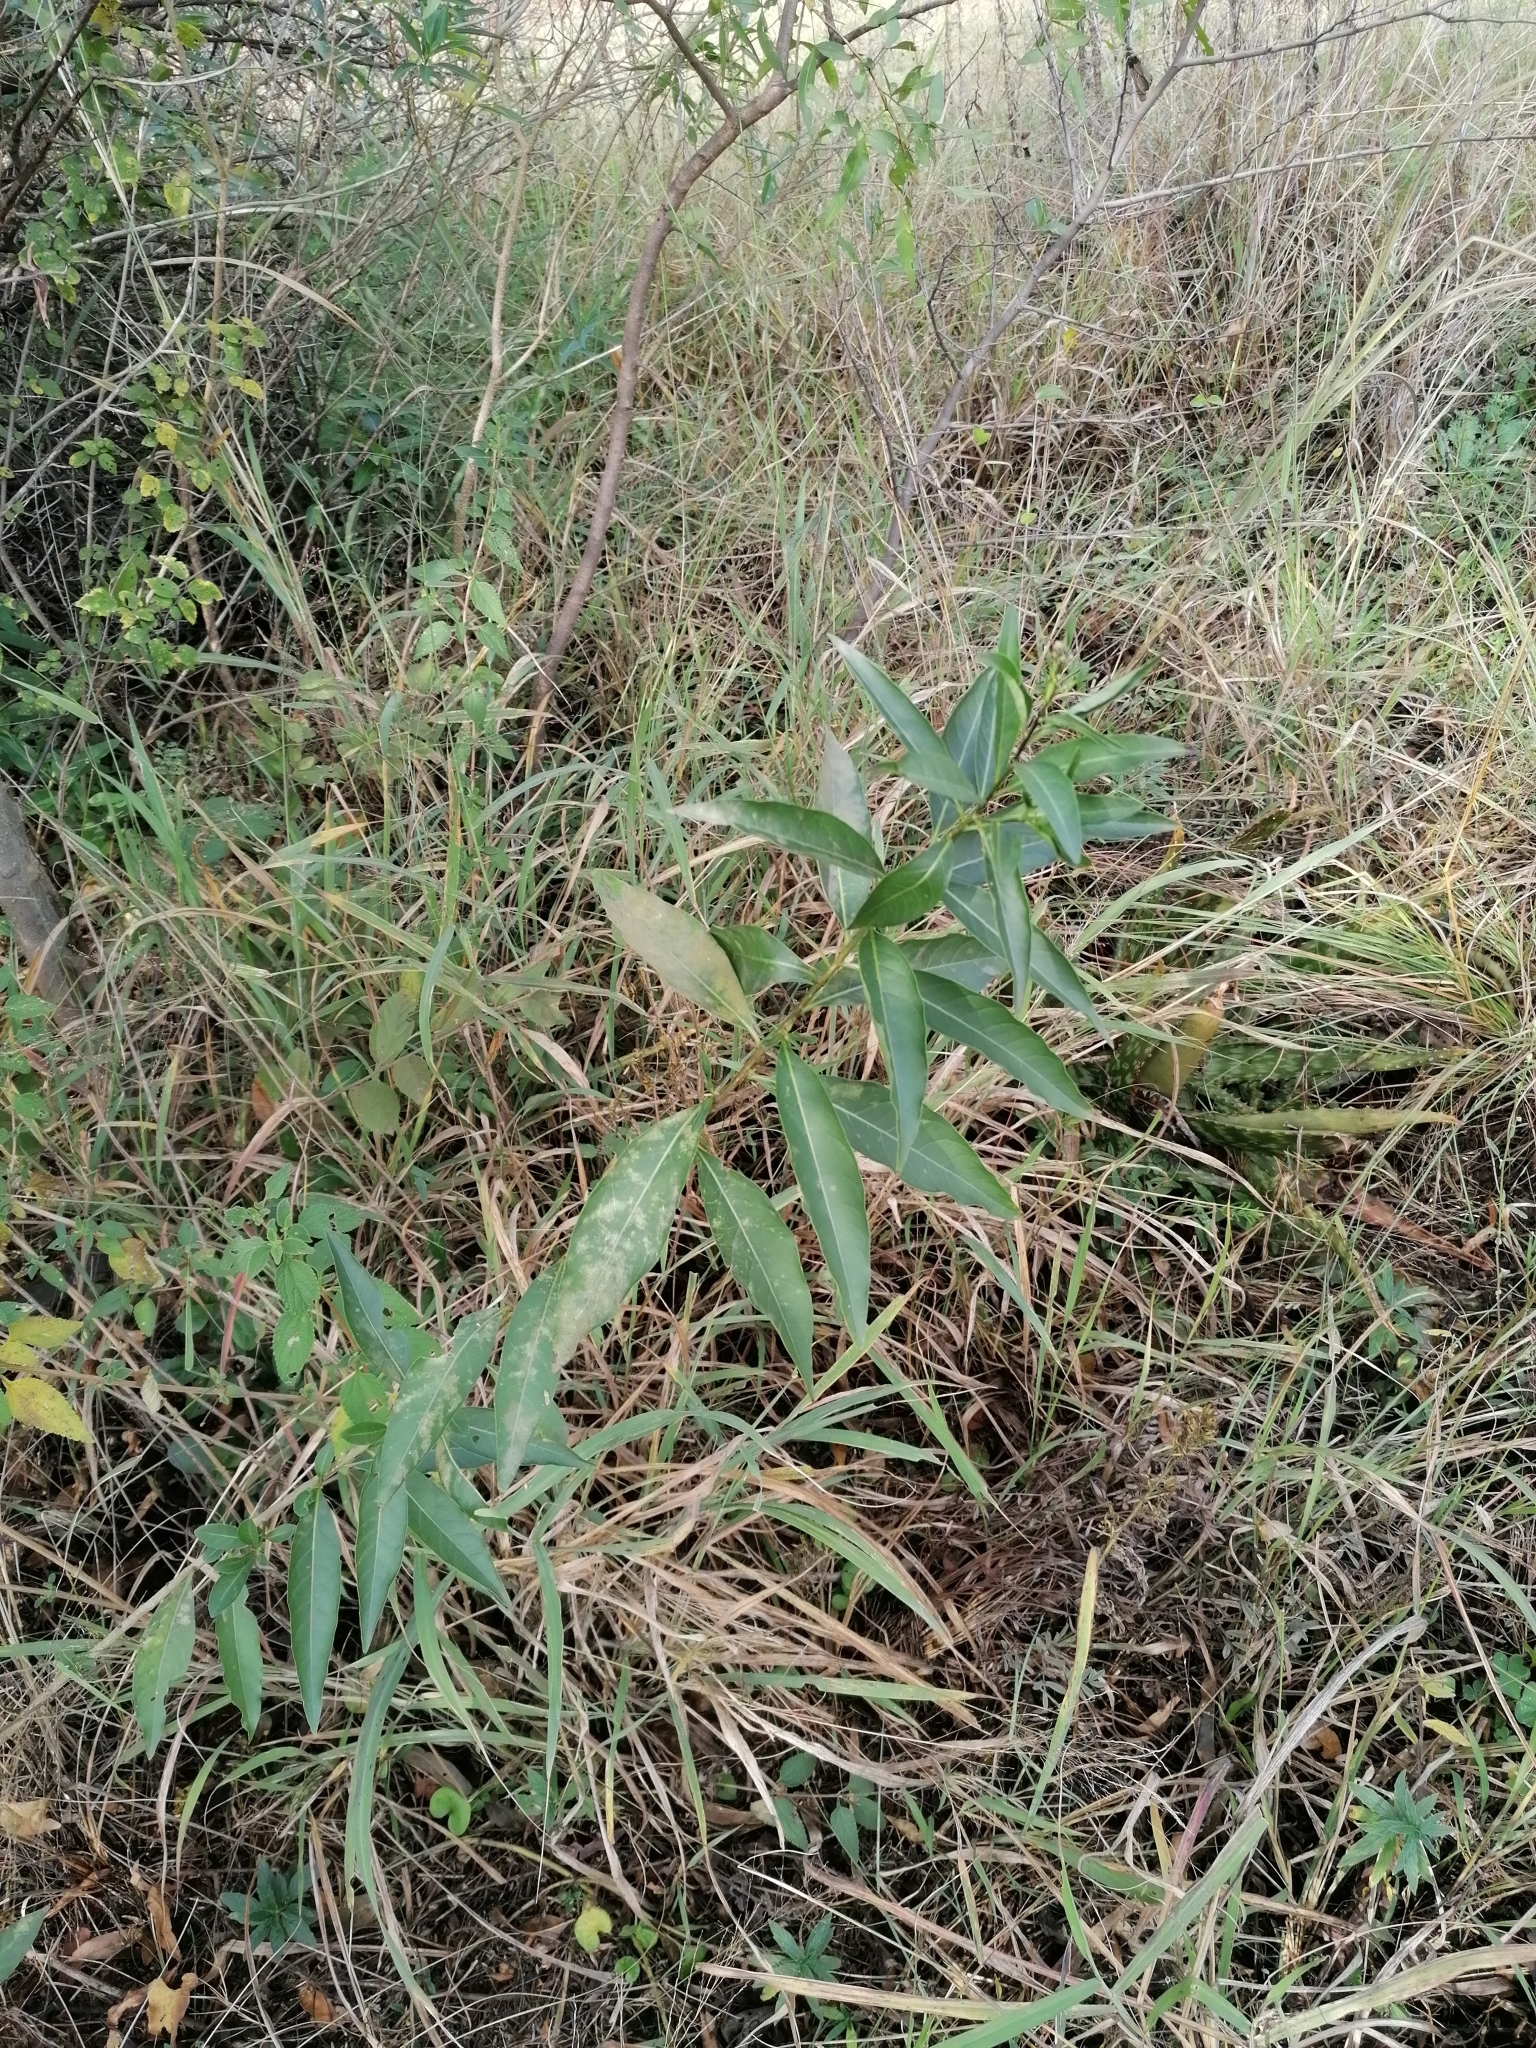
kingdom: Plantae
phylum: Tracheophyta
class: Magnoliopsida
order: Solanales
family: Solanaceae
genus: Cestrum
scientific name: Cestrum parqui
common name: Chilean cestrum
